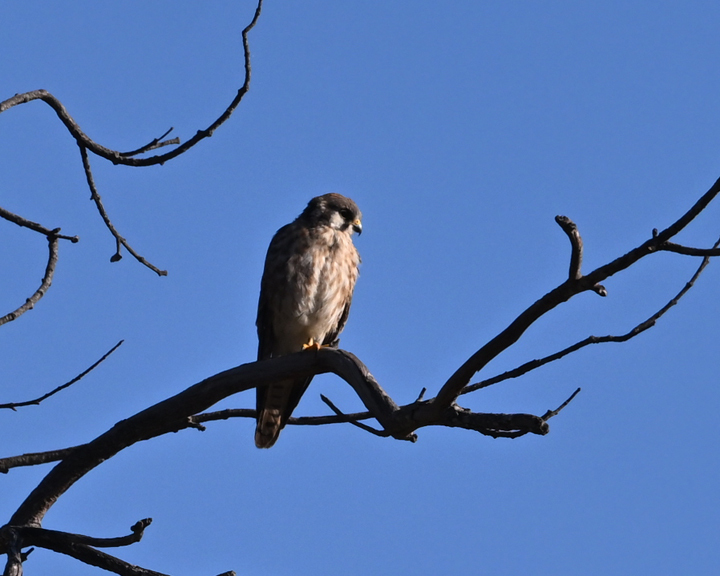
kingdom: Animalia
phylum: Chordata
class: Aves
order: Falconiformes
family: Falconidae
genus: Falco
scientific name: Falco sparverius
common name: American kestrel
